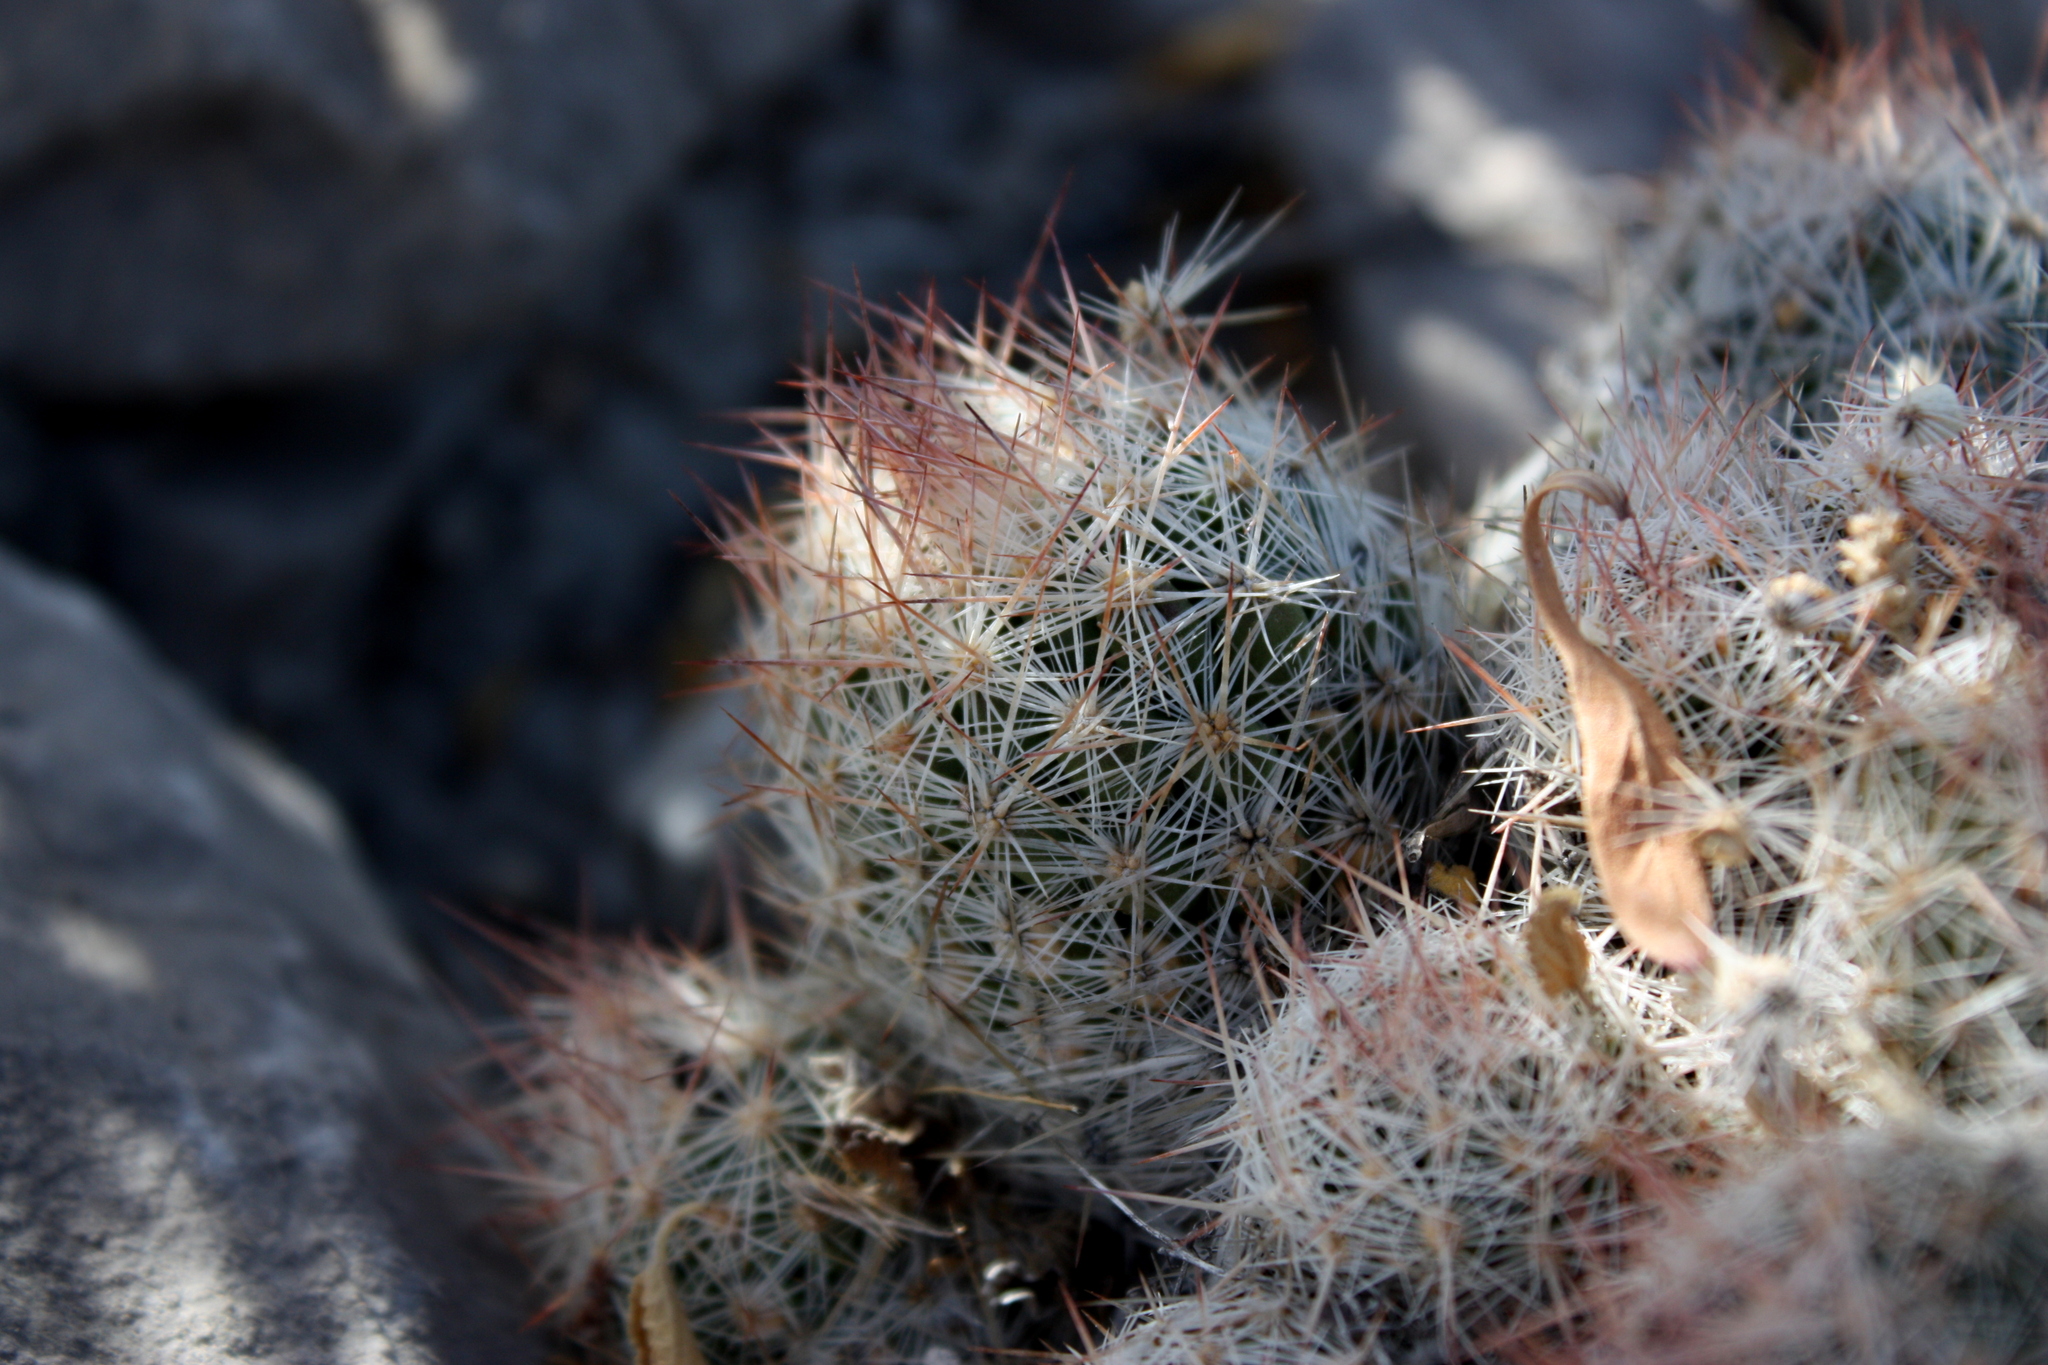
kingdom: Plantae
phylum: Tracheophyta
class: Magnoliopsida
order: Caryophyllales
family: Cactaceae
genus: Pelecyphora
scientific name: Pelecyphora tuberculosa
